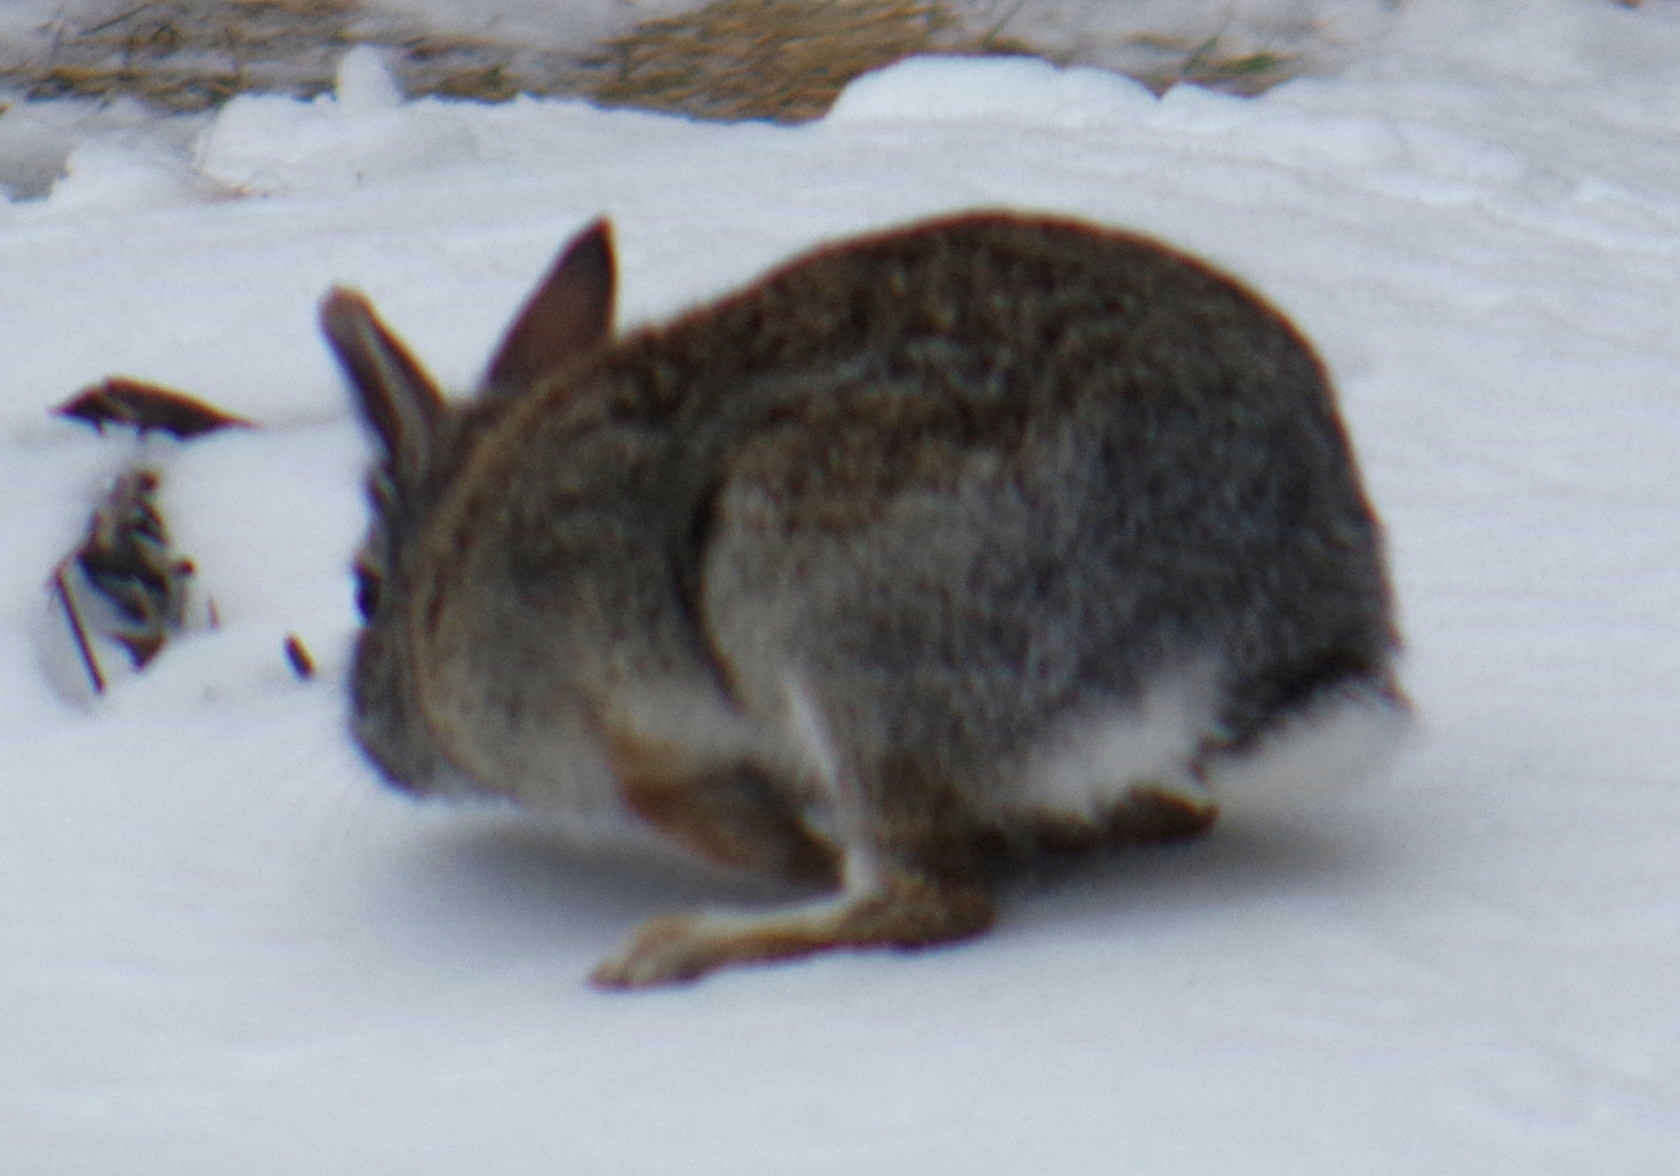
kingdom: Animalia
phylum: Chordata
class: Mammalia
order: Lagomorpha
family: Leporidae
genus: Sylvilagus
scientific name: Sylvilagus floridanus
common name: Eastern cottontail
